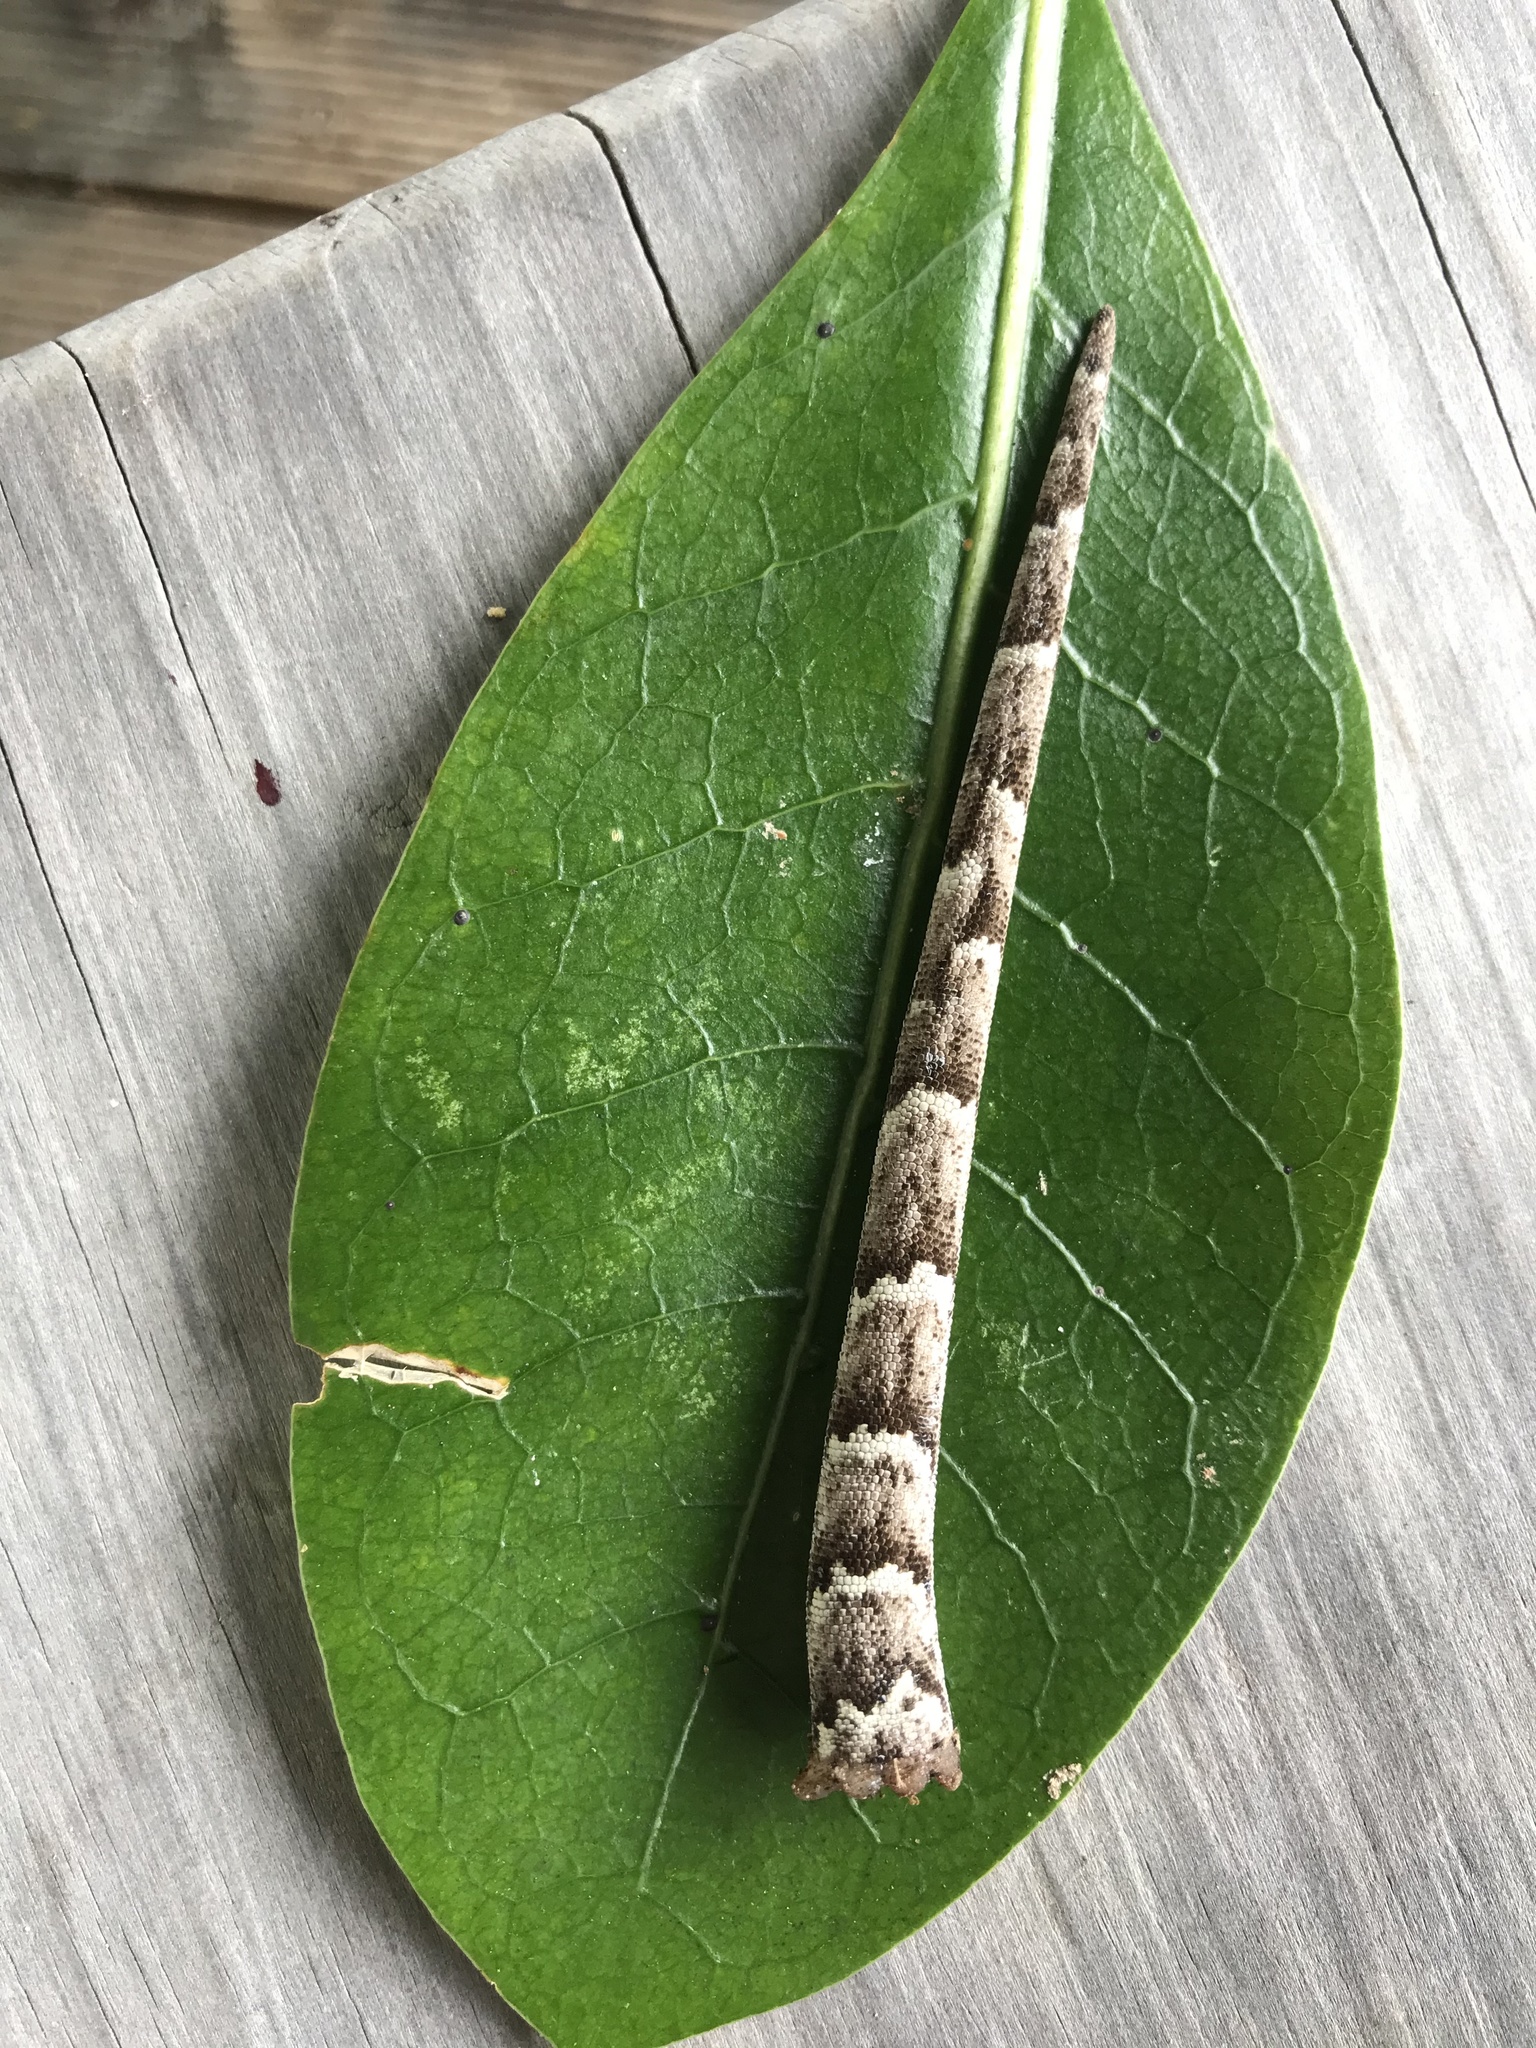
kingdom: Animalia
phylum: Chordata
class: Squamata
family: Diplodactylidae
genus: Mokopirirakau
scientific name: Mokopirirakau
